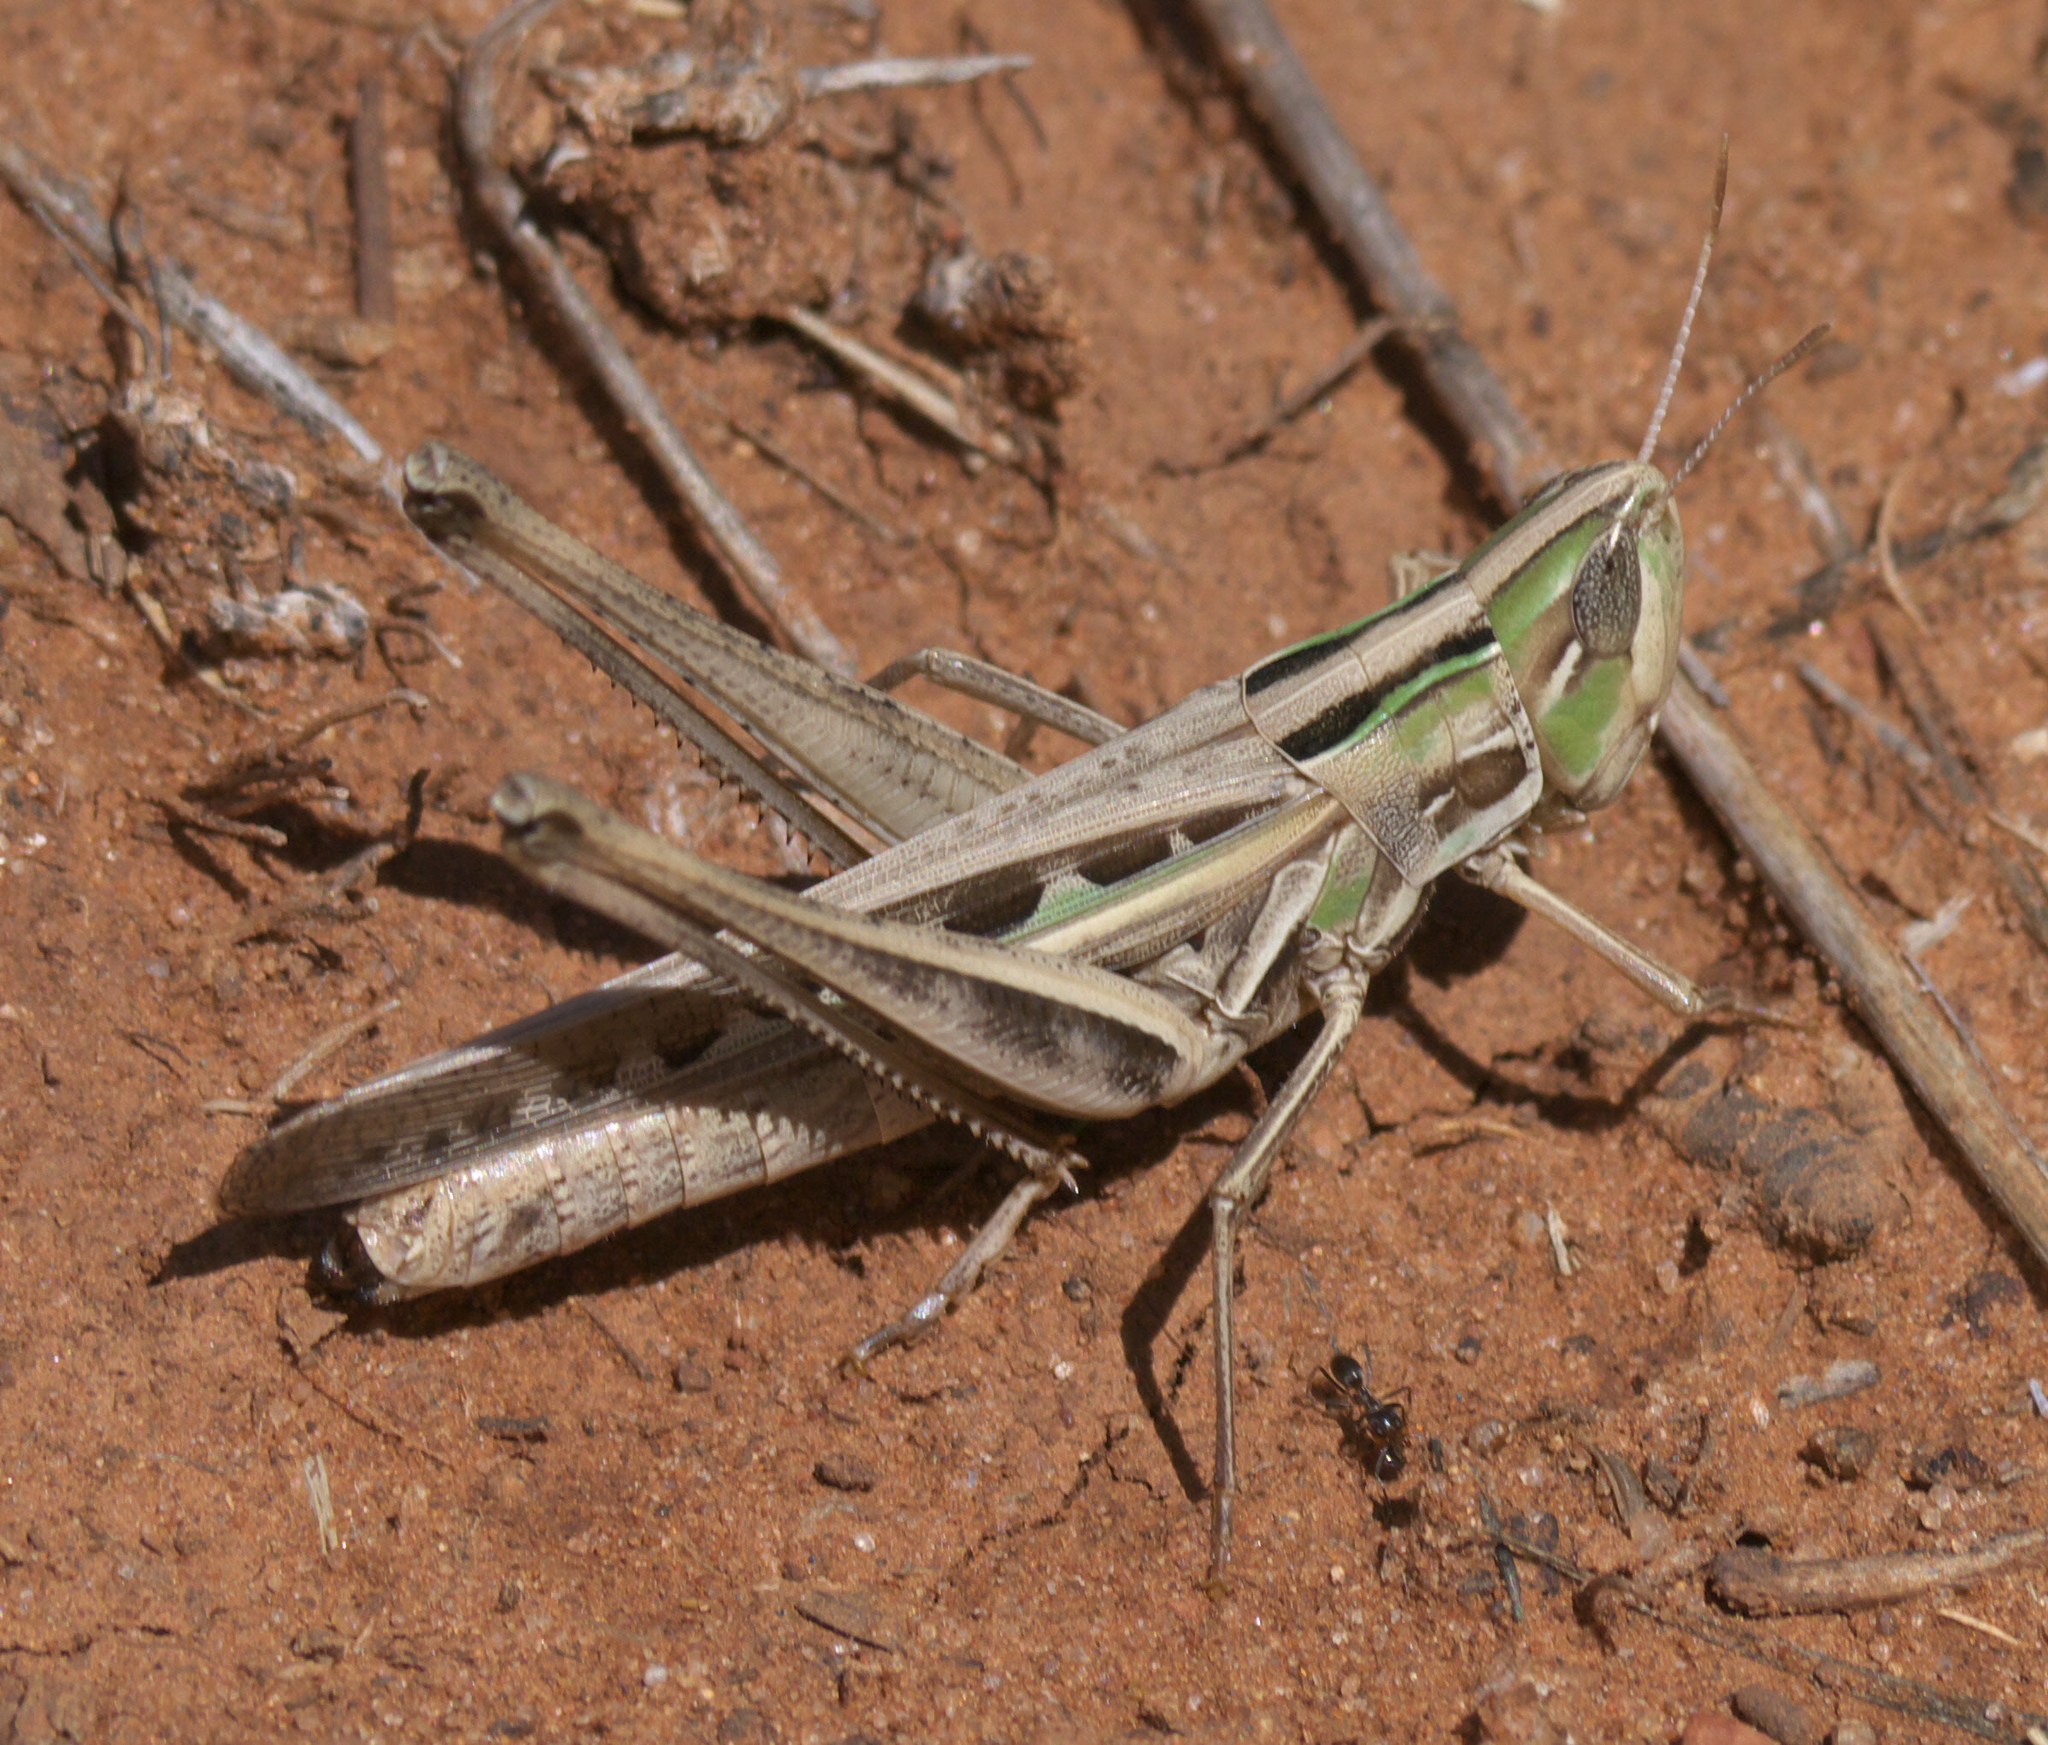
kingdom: Animalia
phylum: Arthropoda
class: Insecta
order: Orthoptera
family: Acrididae
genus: Syrbula
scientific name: Syrbula admirabilis
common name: Handsome grasshopper
